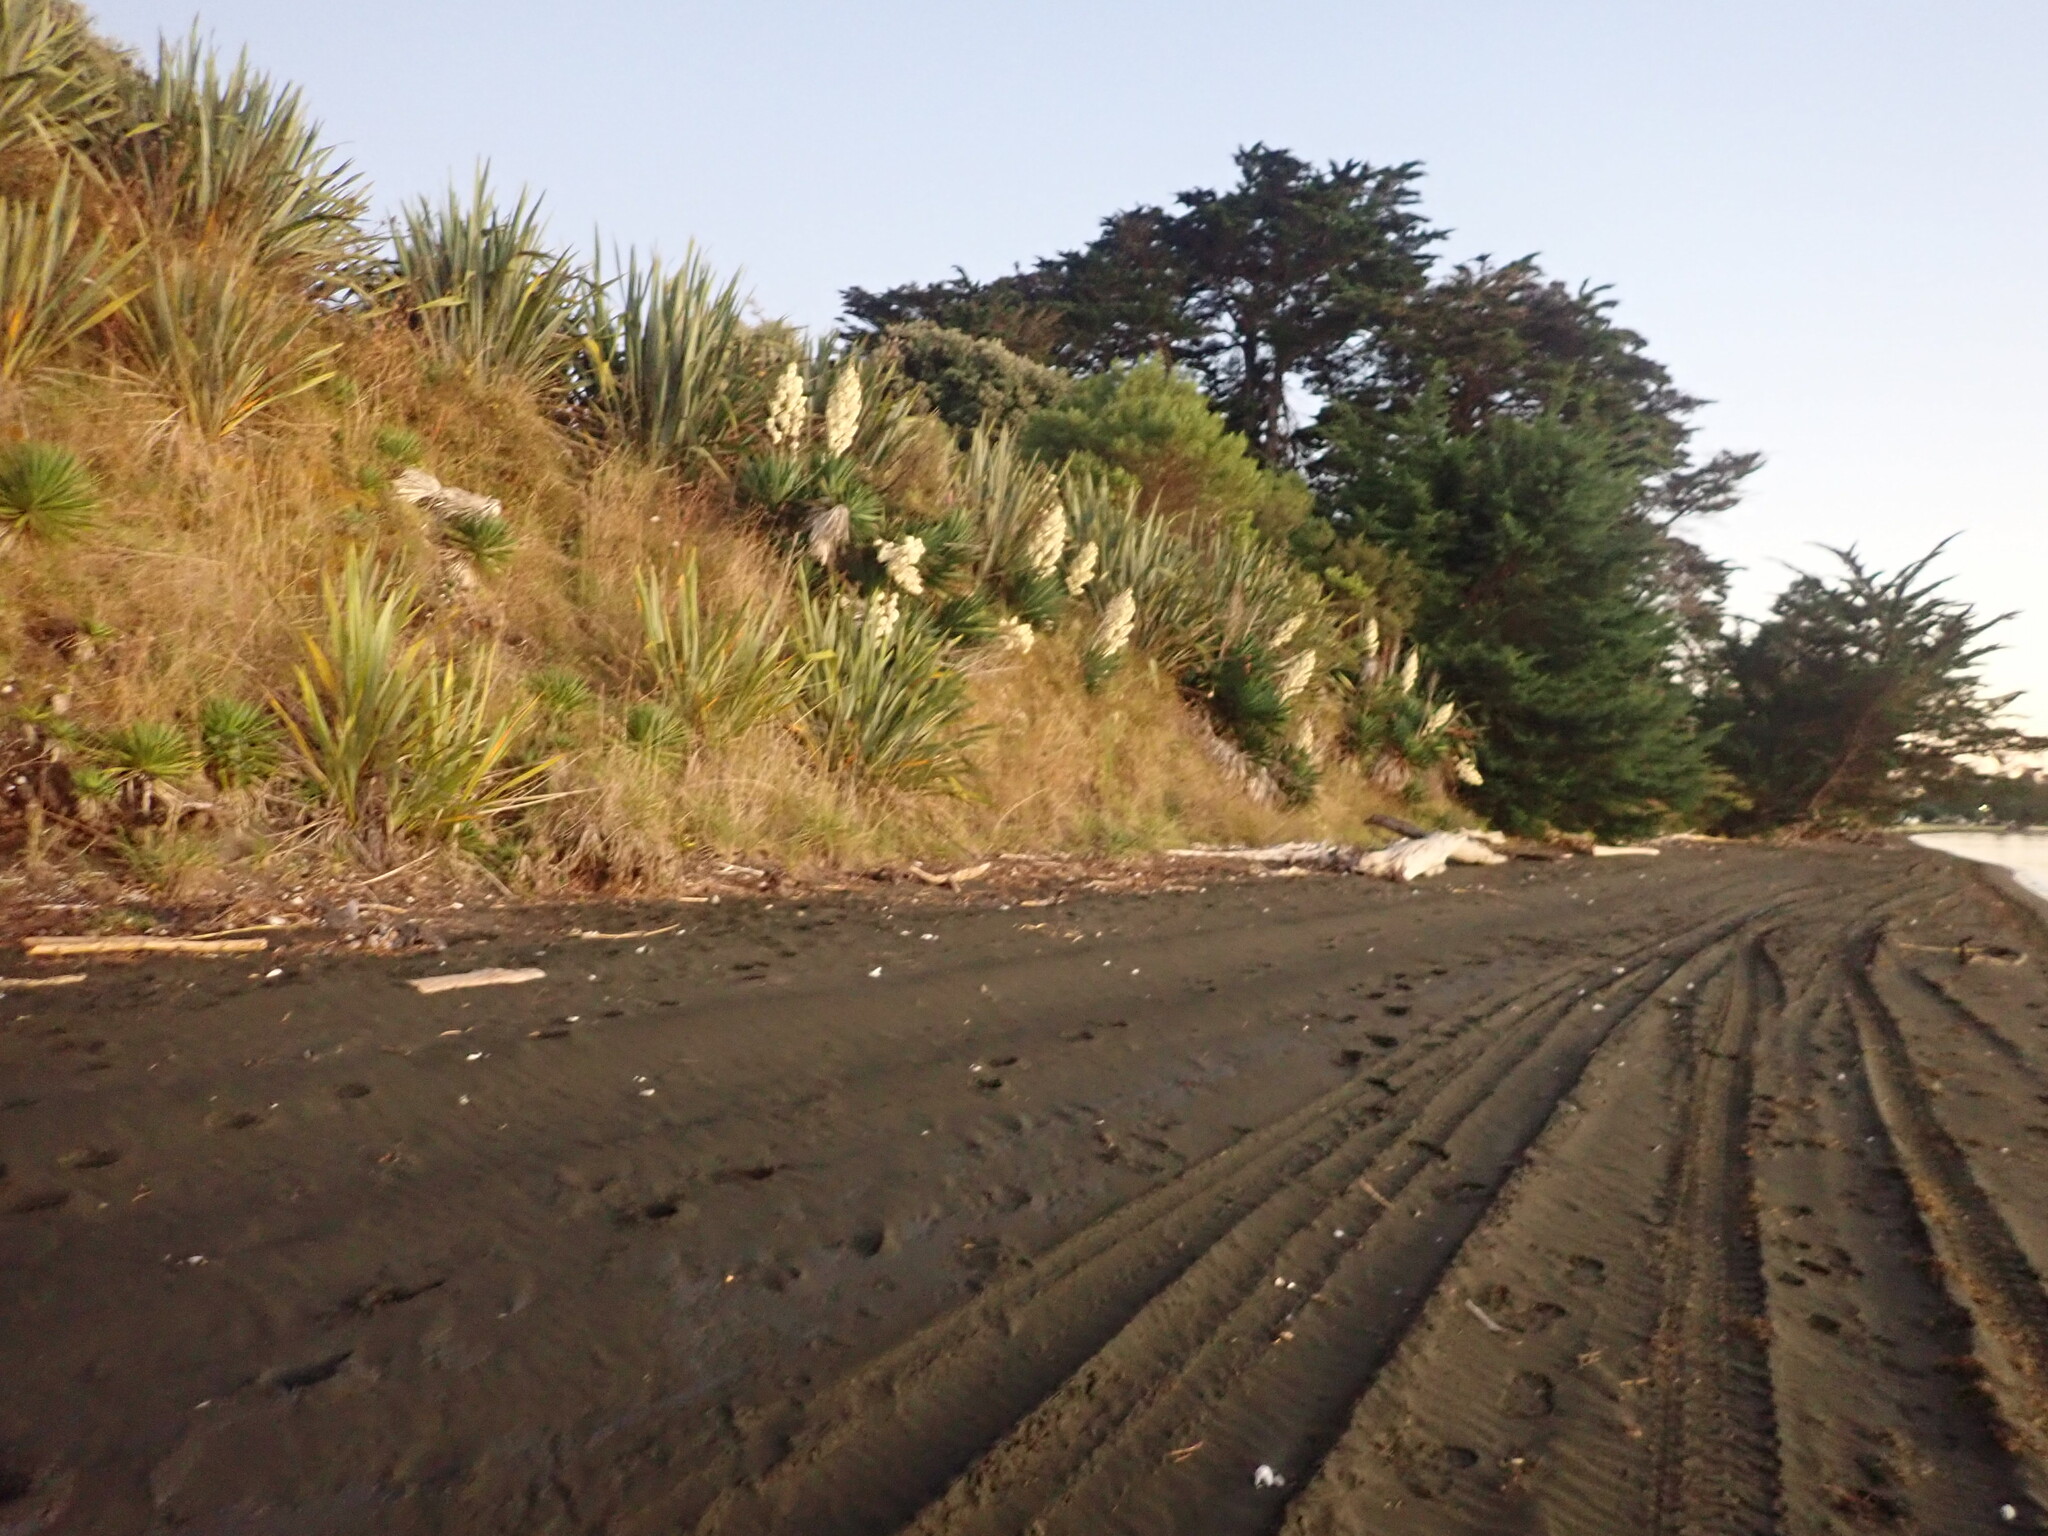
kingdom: Plantae
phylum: Tracheophyta
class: Liliopsida
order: Asparagales
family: Asparagaceae
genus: Yucca
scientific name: Yucca gloriosa
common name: Spanish-dagger
